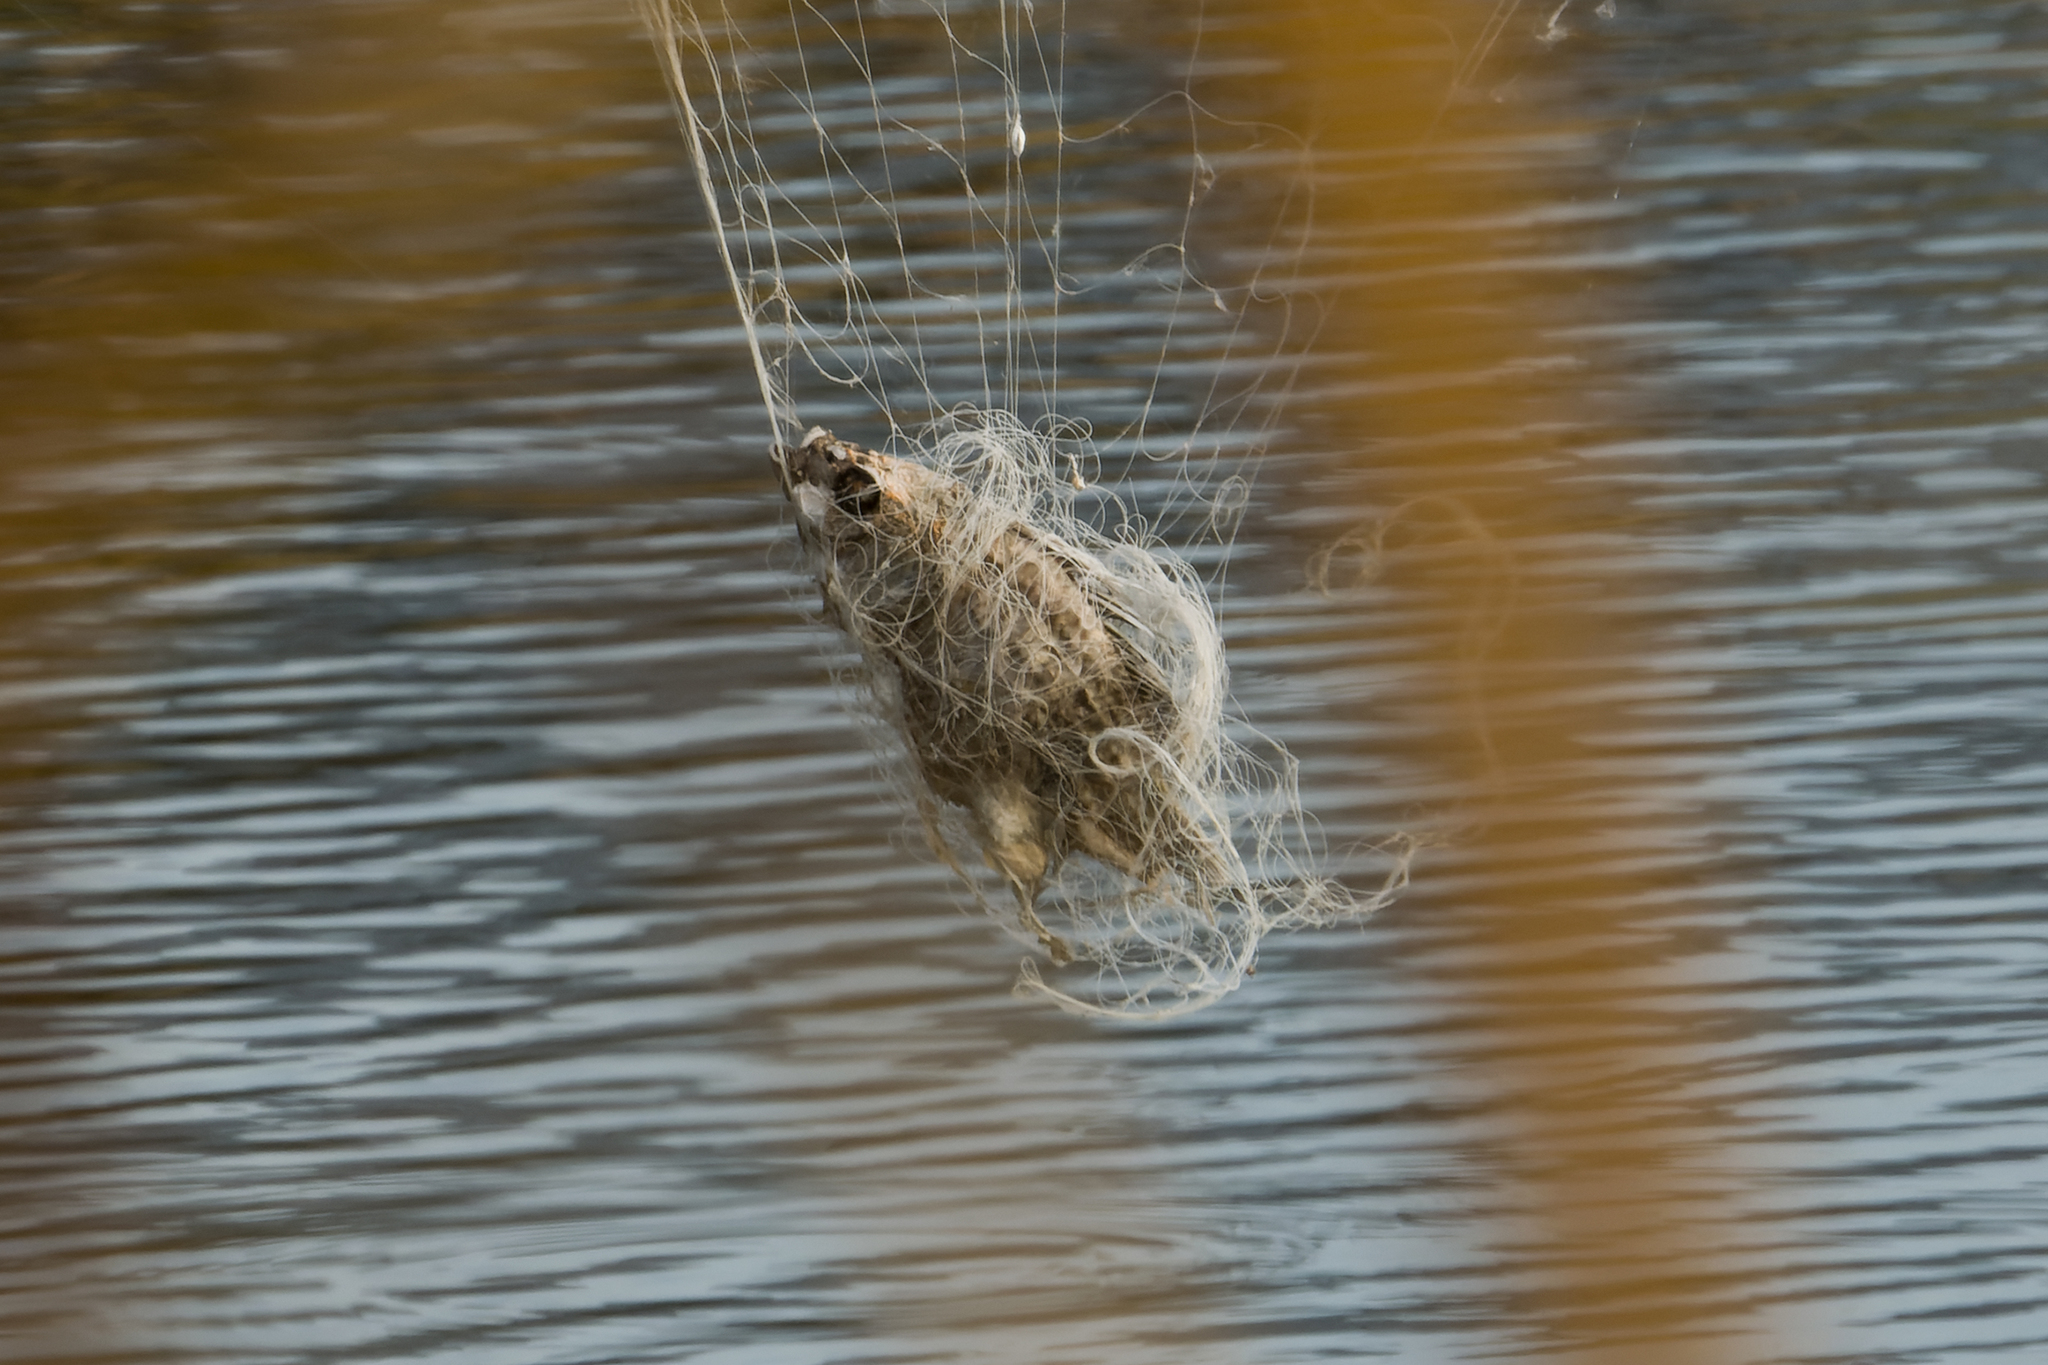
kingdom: Animalia
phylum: Chordata
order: Perciformes
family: Cichlidae
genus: Oreochromis
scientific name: Oreochromis niloticus
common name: Nile tilapia
